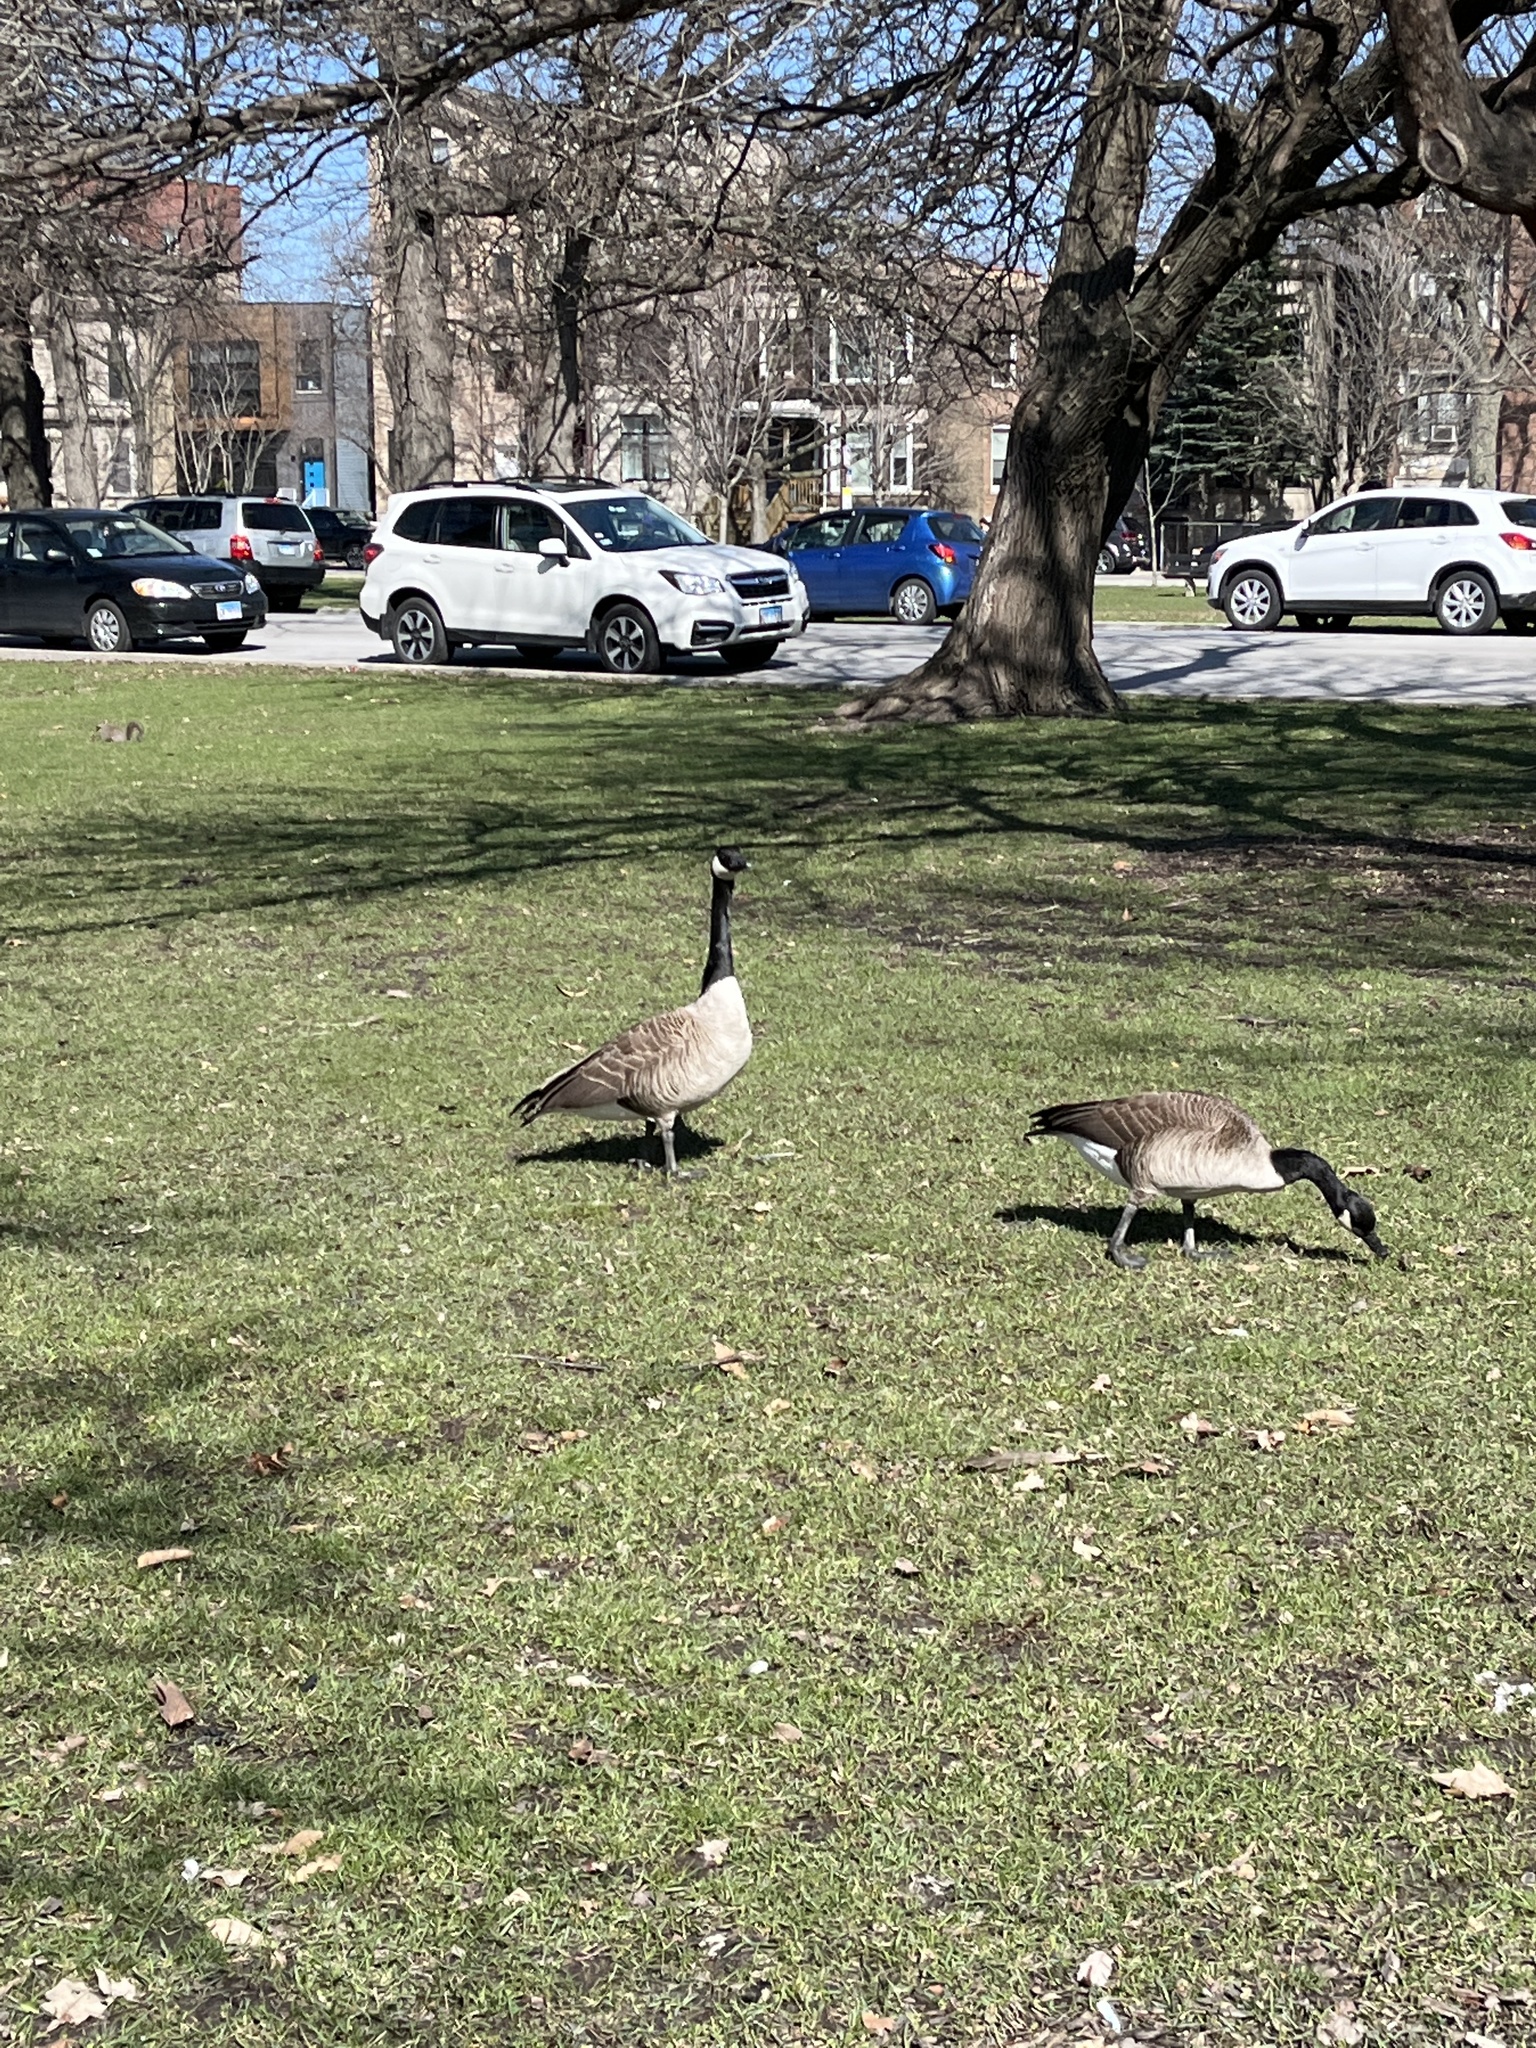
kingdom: Animalia
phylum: Chordata
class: Aves
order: Anseriformes
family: Anatidae
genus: Branta
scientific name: Branta canadensis
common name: Canada goose
